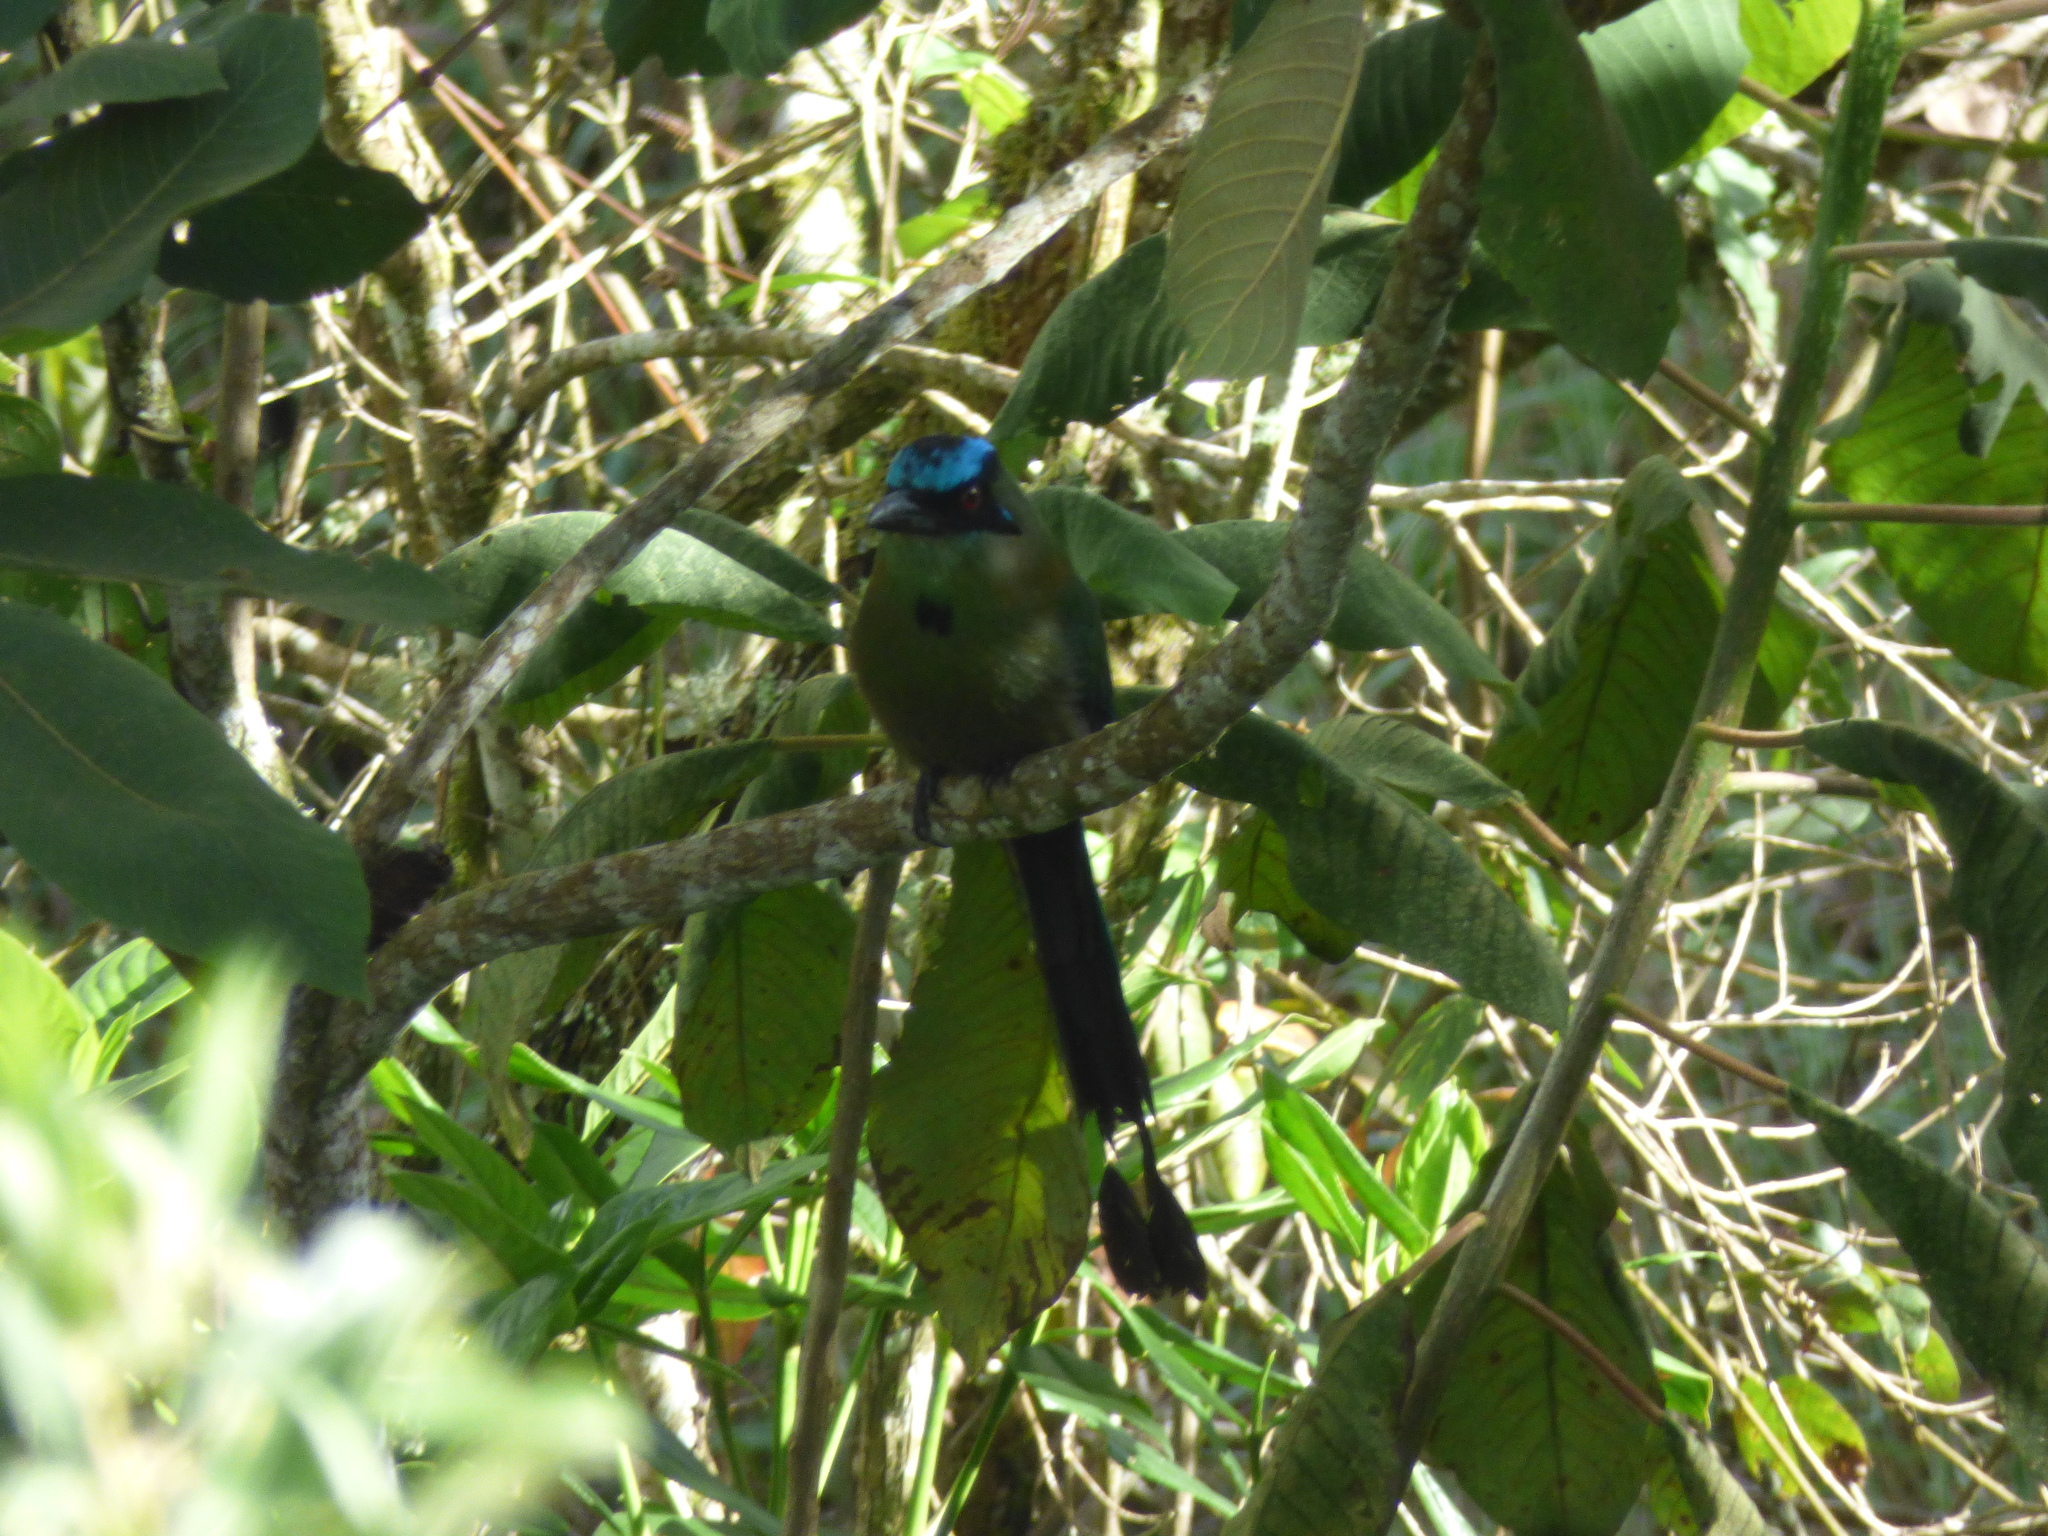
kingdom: Animalia
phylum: Chordata
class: Aves
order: Coraciiformes
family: Momotidae
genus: Momotus
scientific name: Momotus aequatorialis
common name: Andean motmot
